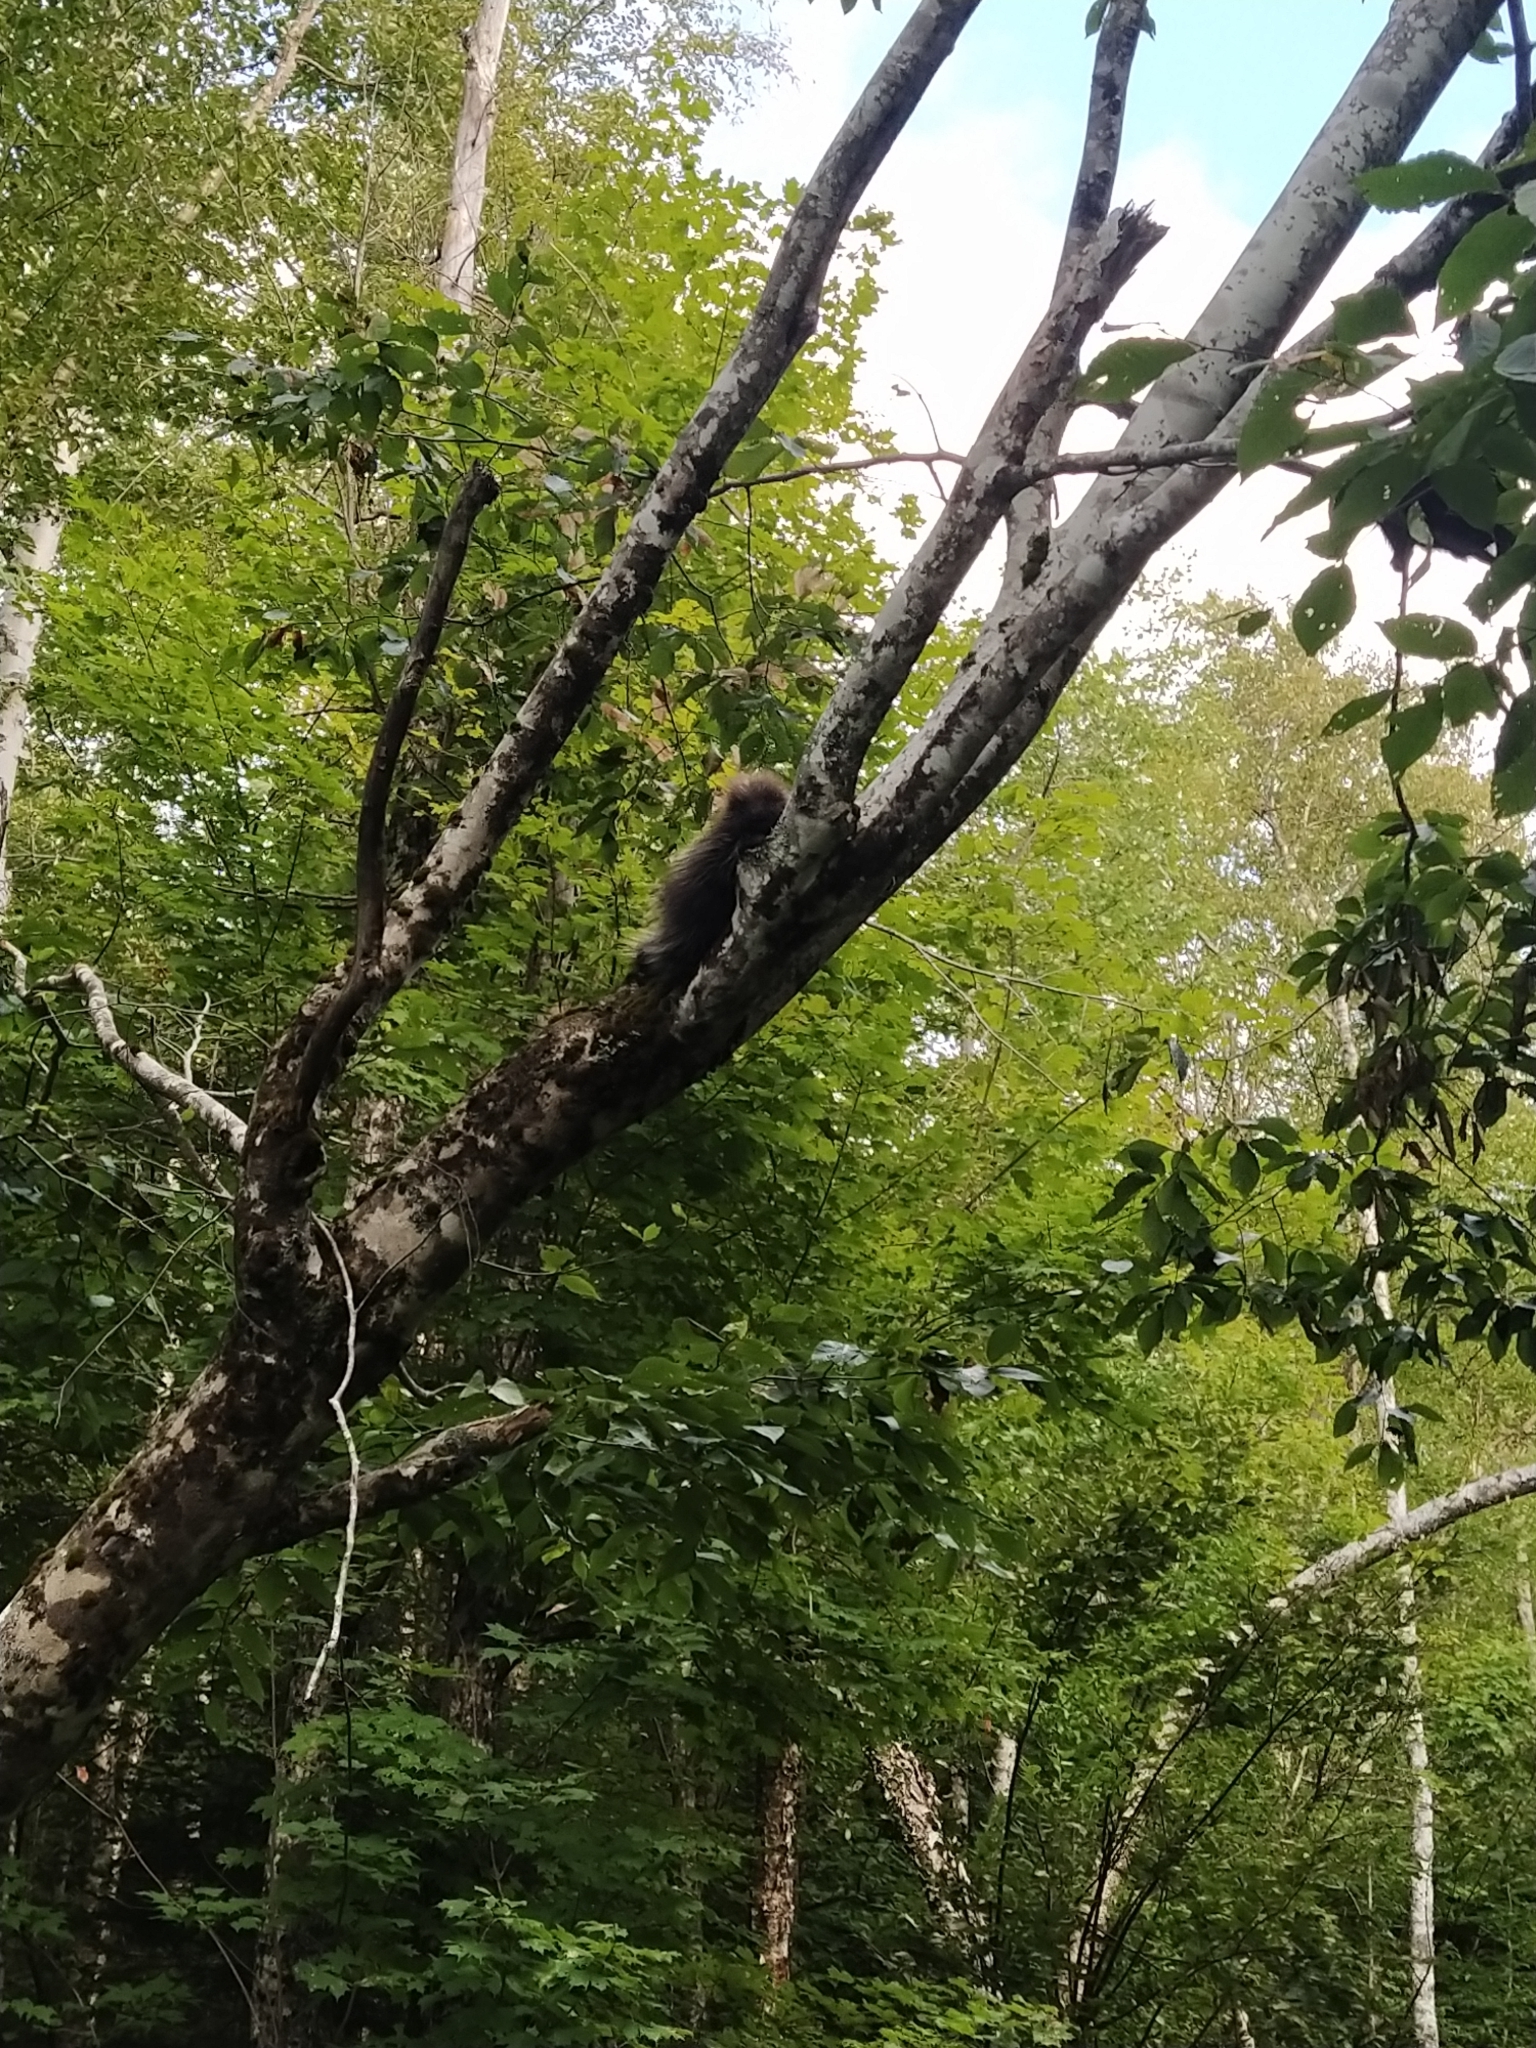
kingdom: Animalia
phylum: Chordata
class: Mammalia
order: Rodentia
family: Erethizontidae
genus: Erethizon
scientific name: Erethizon dorsatus
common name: North american porcupine
